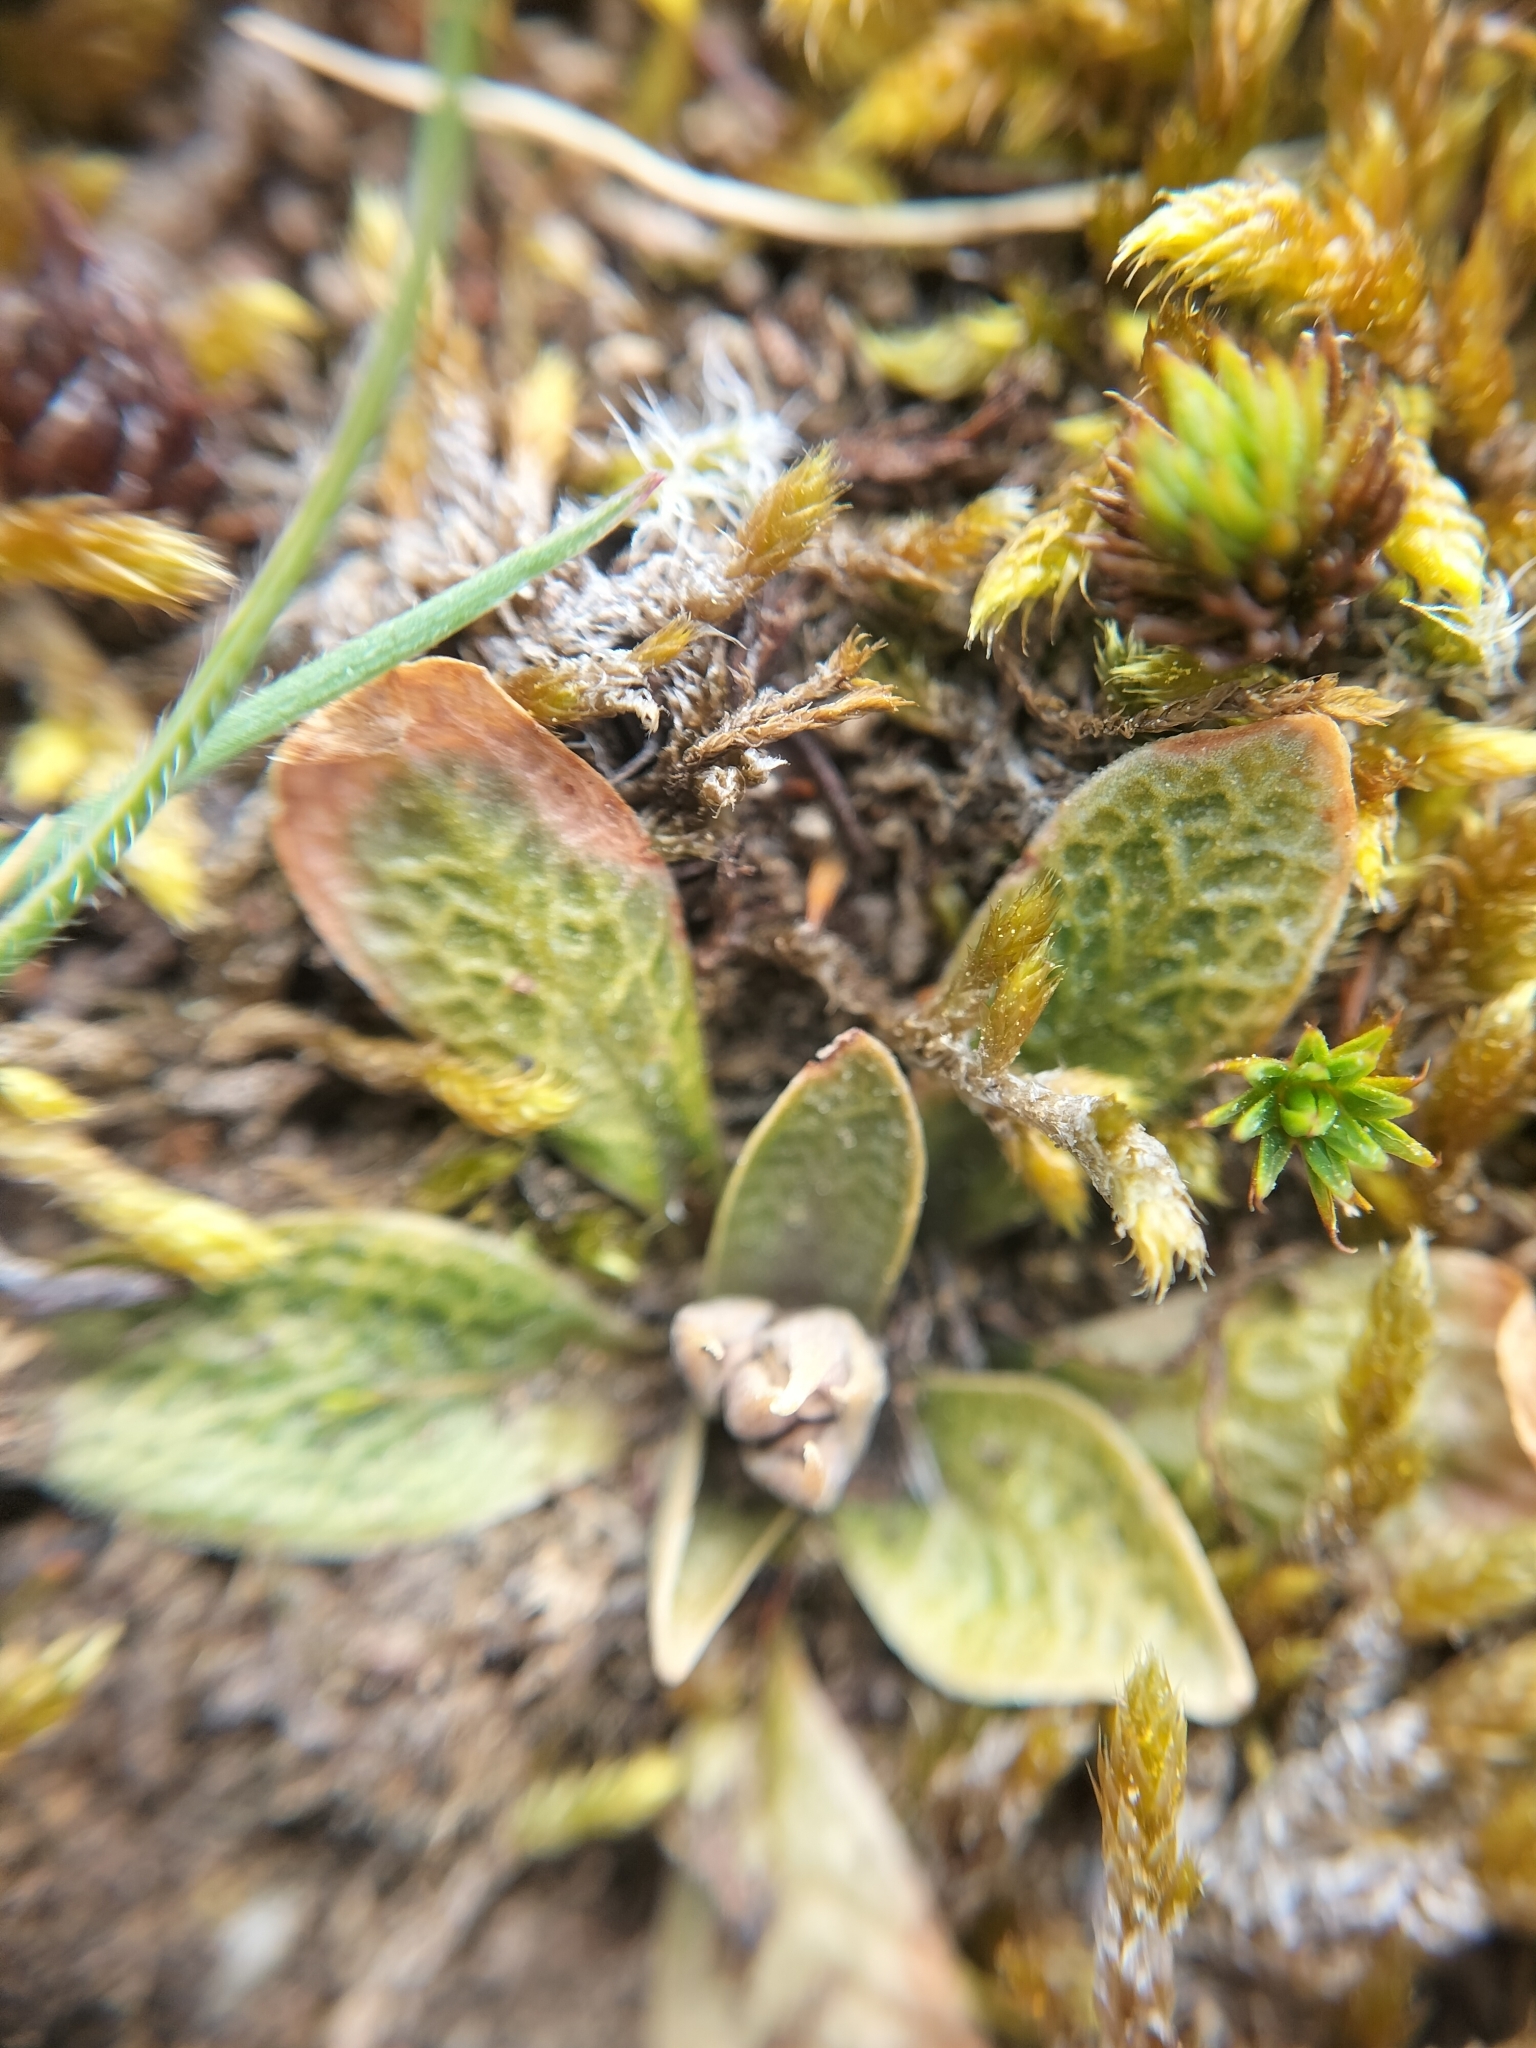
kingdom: Plantae
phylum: Tracheophyta
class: Liliopsida
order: Asparagales
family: Orchidaceae
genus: Pterostylis
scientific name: Pterostylis tristis
